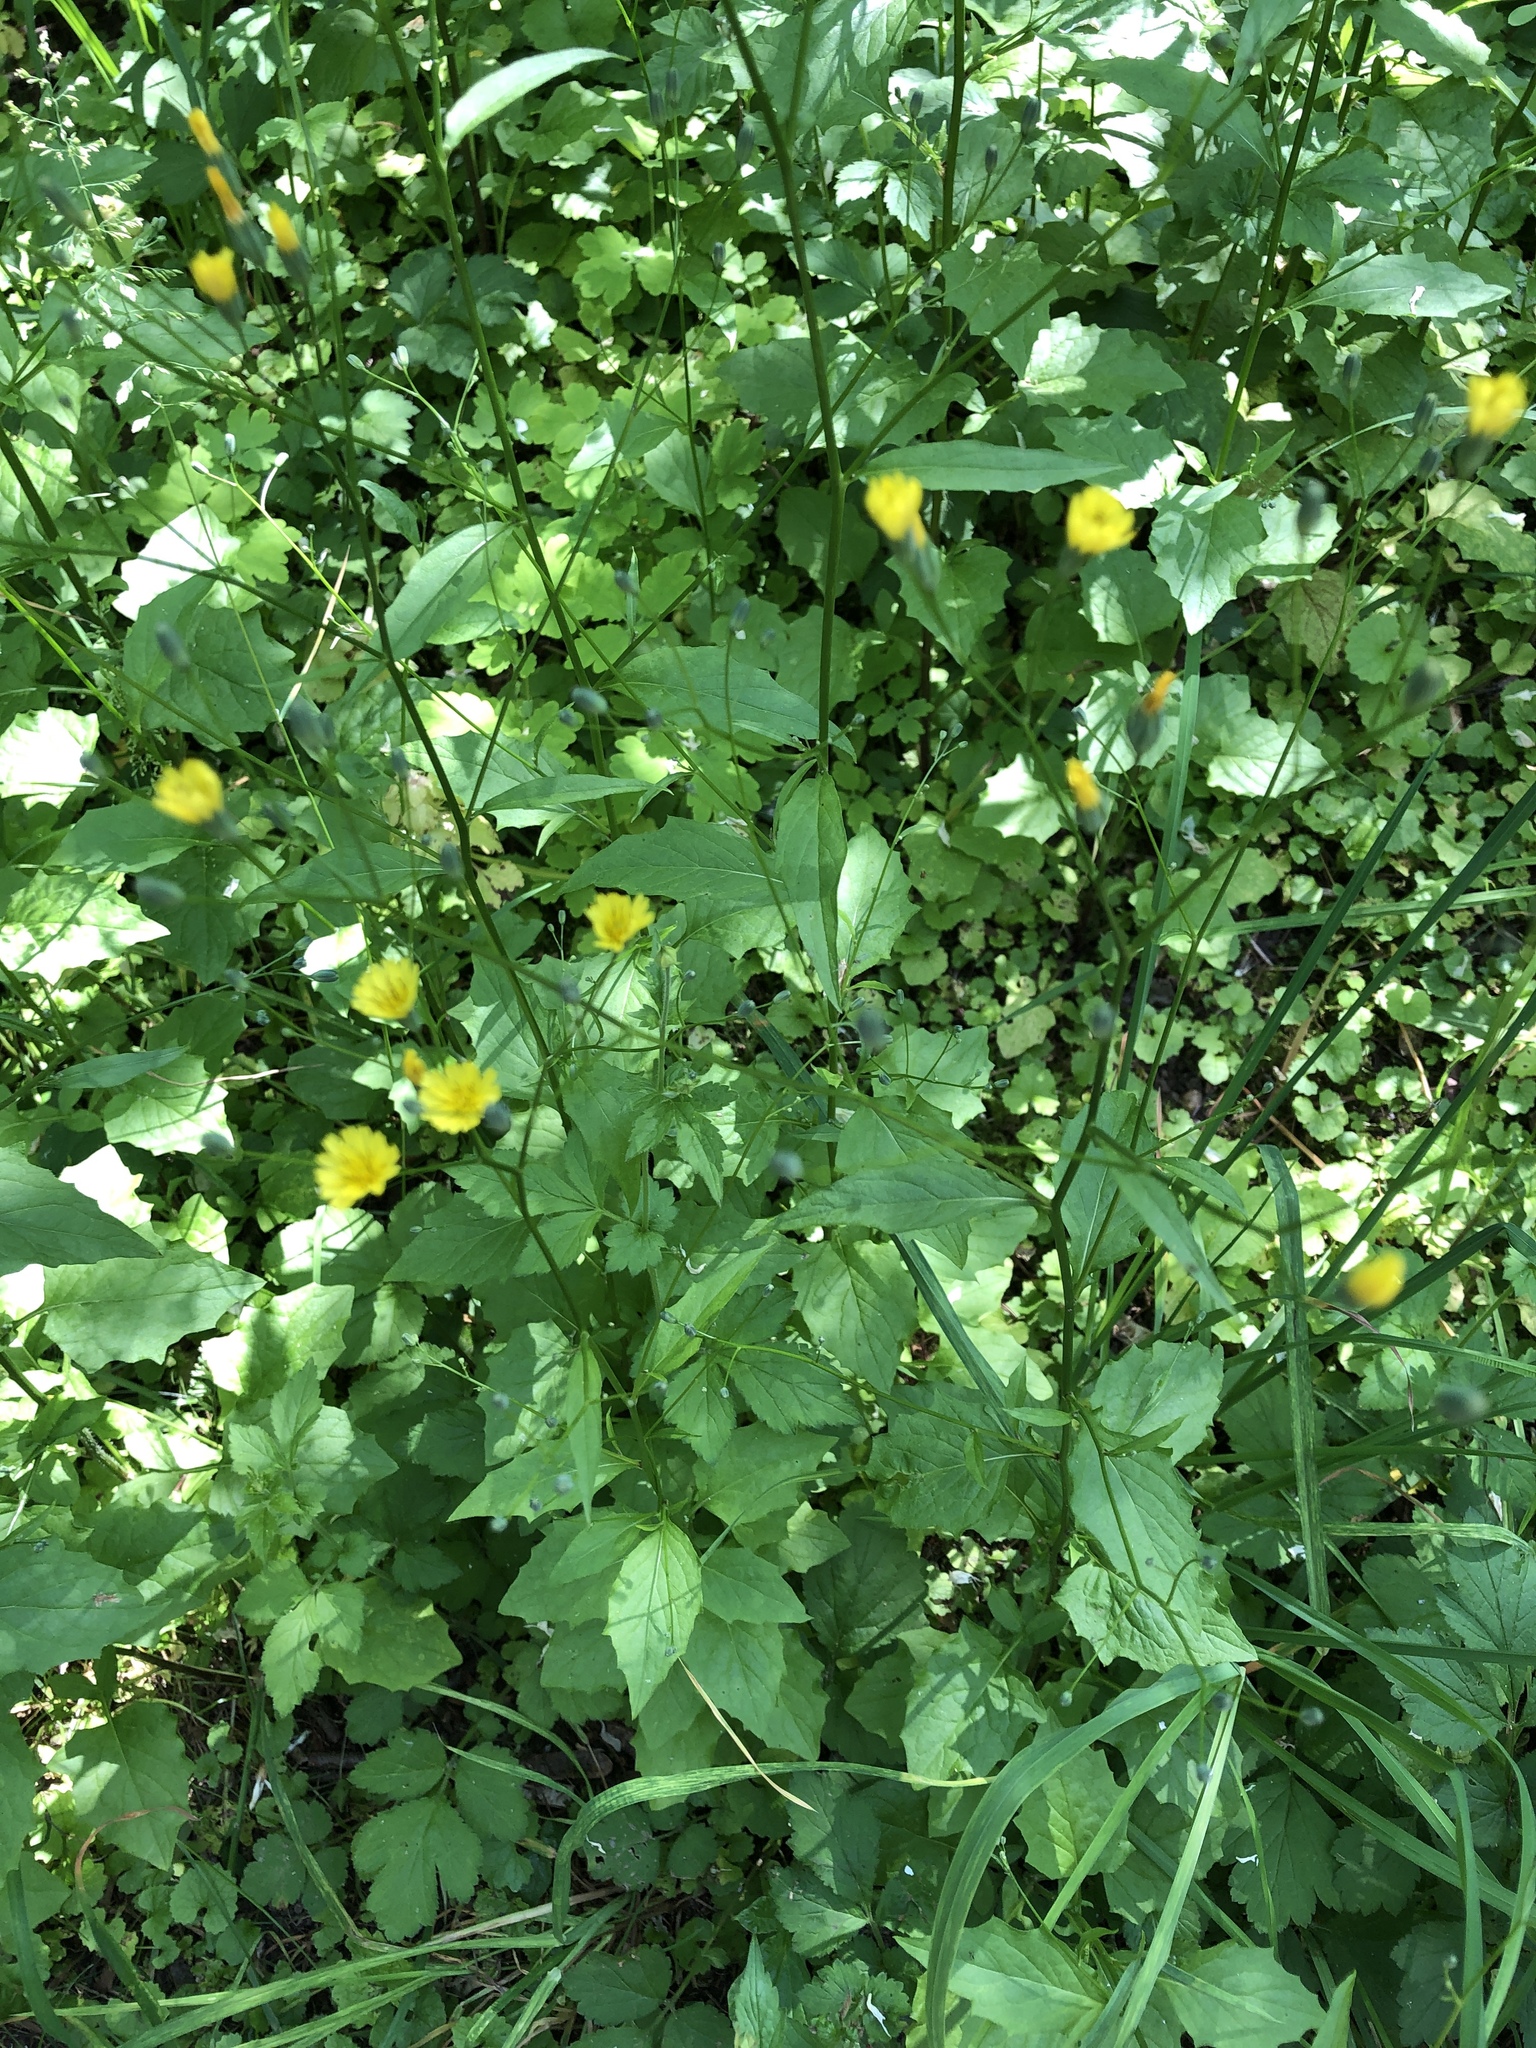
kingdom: Plantae
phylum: Tracheophyta
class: Magnoliopsida
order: Asterales
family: Asteraceae
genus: Lapsana
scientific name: Lapsana communis
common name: Nipplewort
